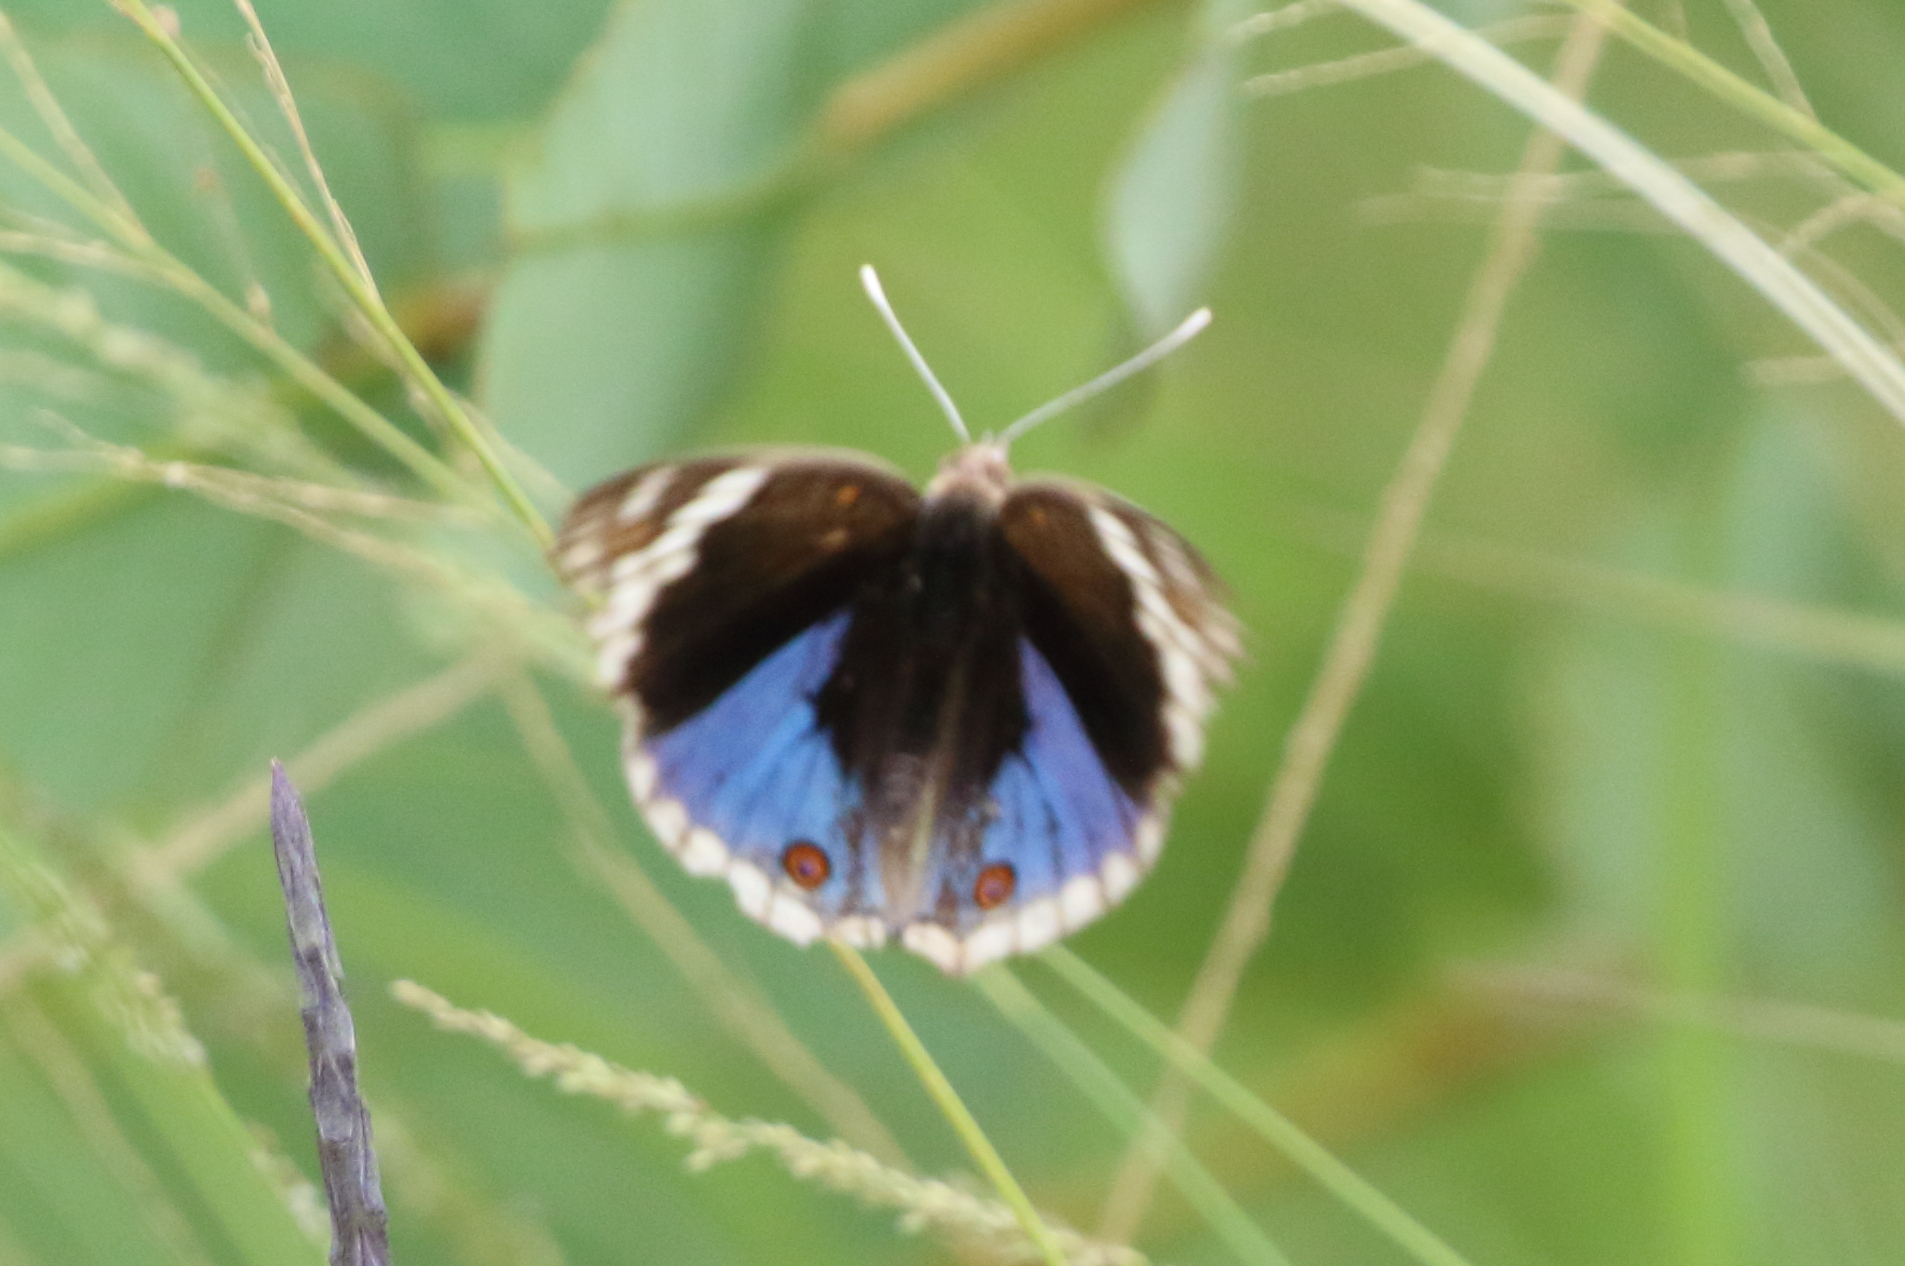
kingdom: Animalia
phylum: Arthropoda
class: Insecta
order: Lepidoptera
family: Nymphalidae
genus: Junonia
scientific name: Junonia orithya
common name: Blue pansy
